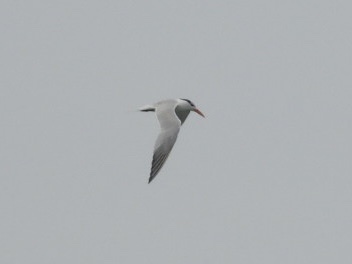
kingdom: Animalia
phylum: Chordata
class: Aves
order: Charadriiformes
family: Laridae
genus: Thalasseus
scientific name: Thalasseus maximus
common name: Royal tern
